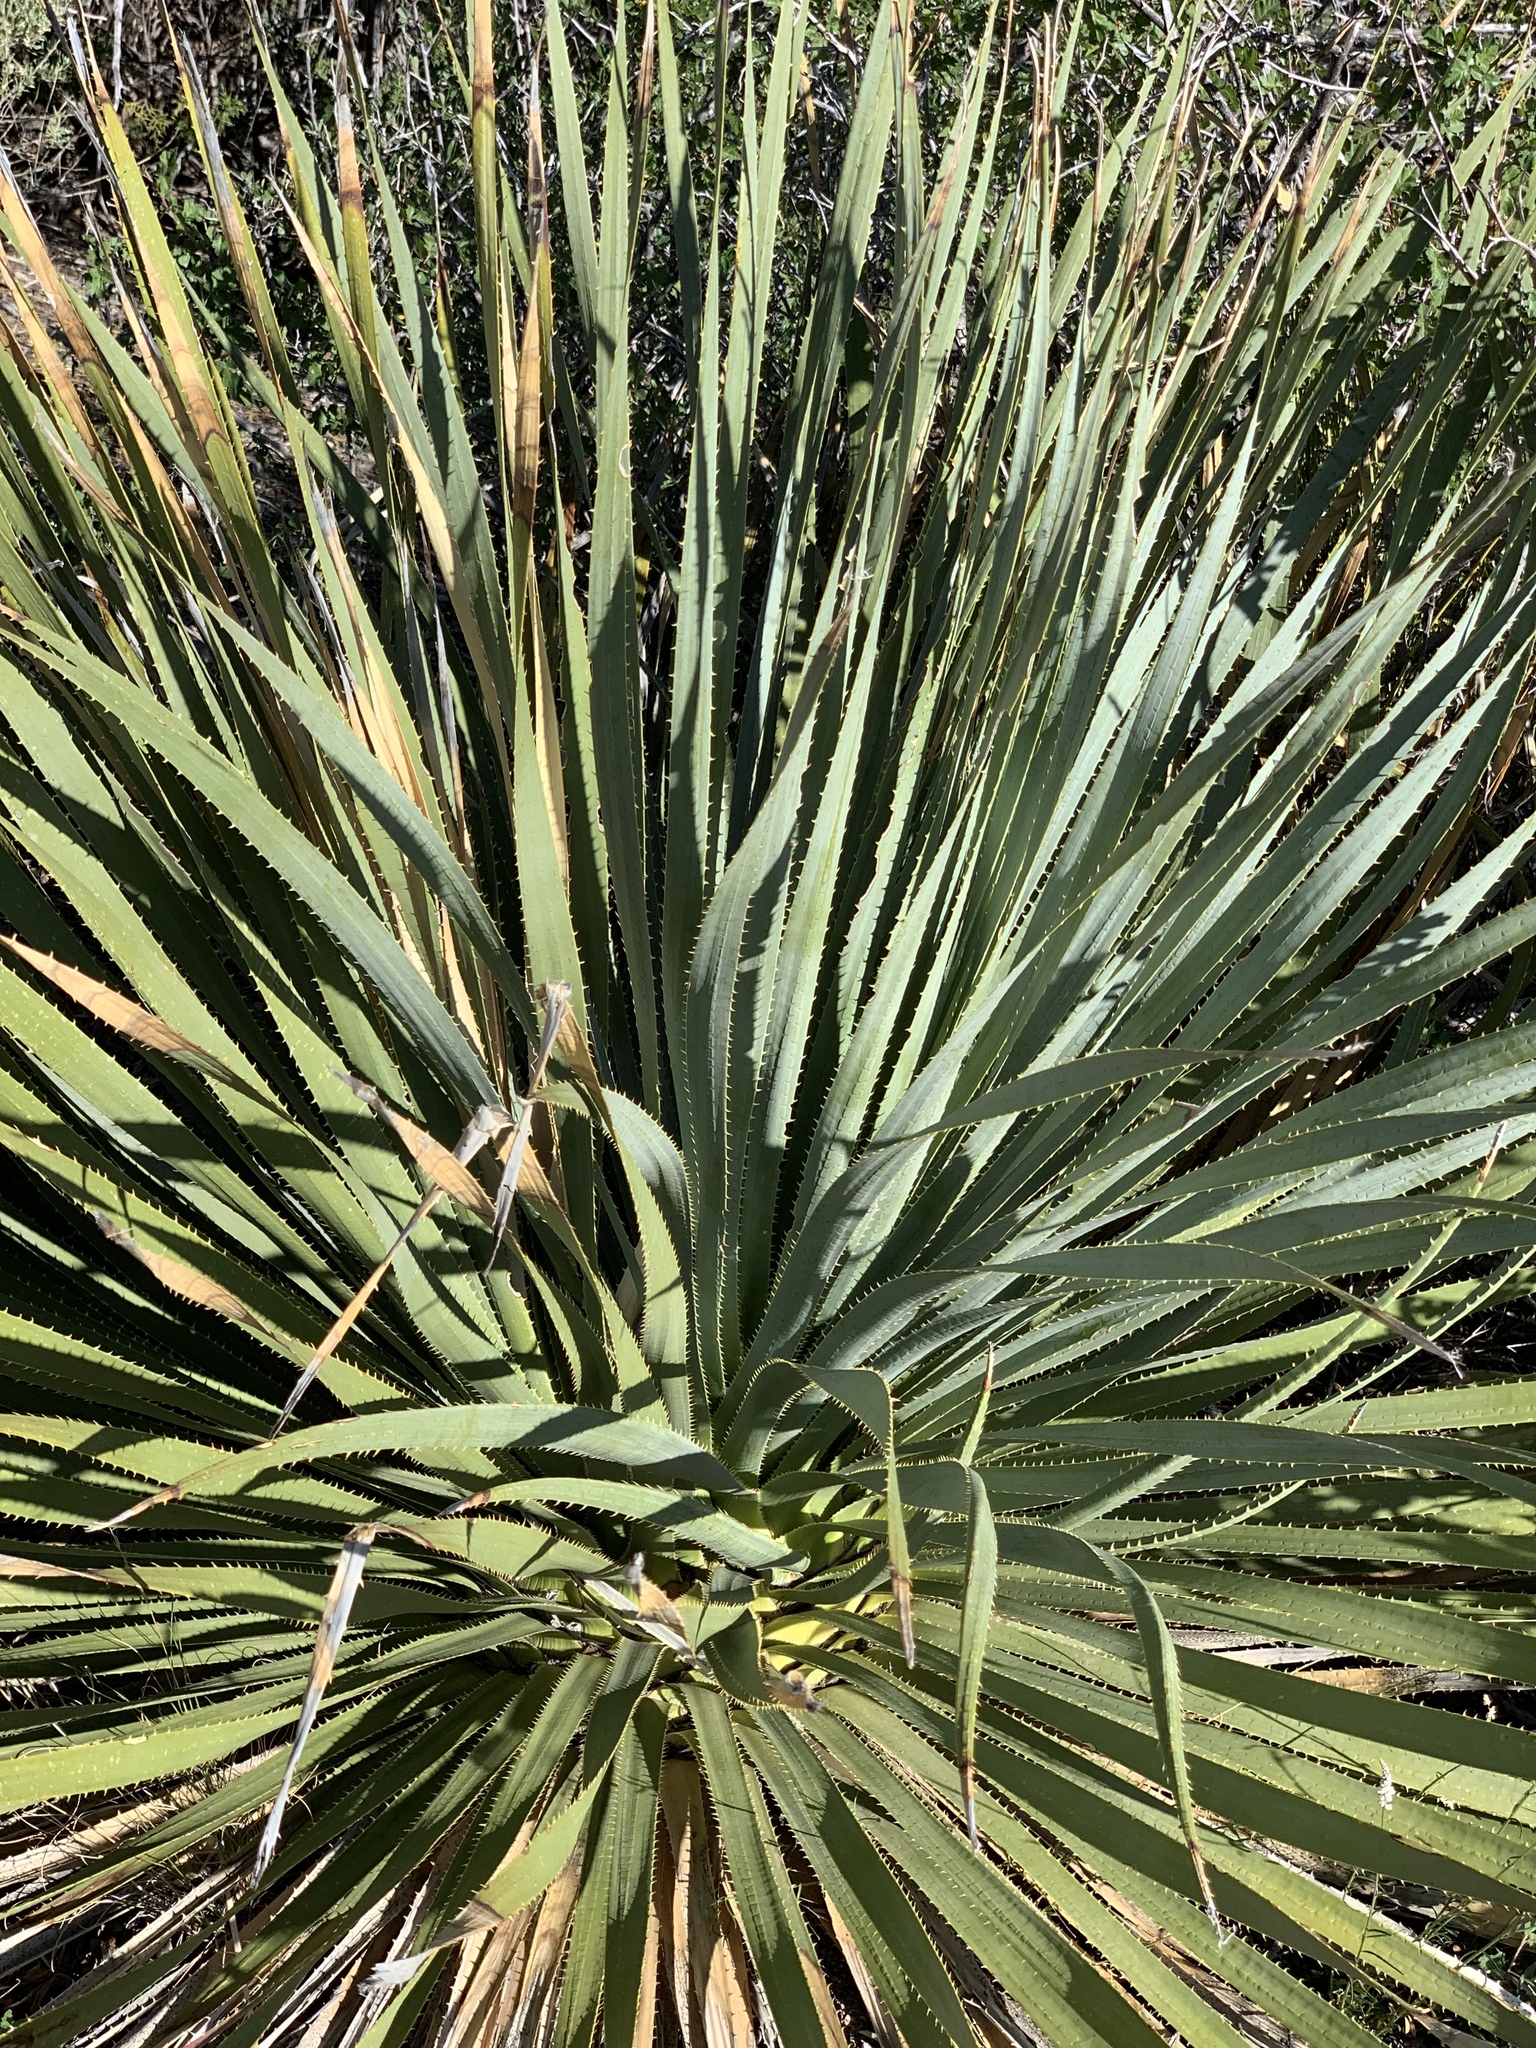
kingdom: Plantae
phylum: Tracheophyta
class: Liliopsida
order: Asparagales
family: Asparagaceae
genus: Dasylirion
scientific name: Dasylirion wheeleri
